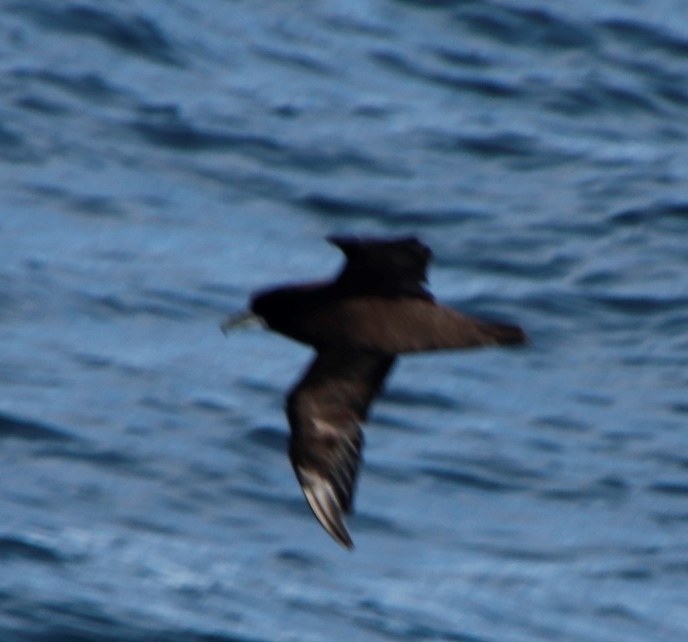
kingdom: Animalia
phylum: Chordata
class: Aves
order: Procellariiformes
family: Procellariidae
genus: Procellaria
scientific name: Procellaria aequinoctialis
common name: White-chinned petrel
